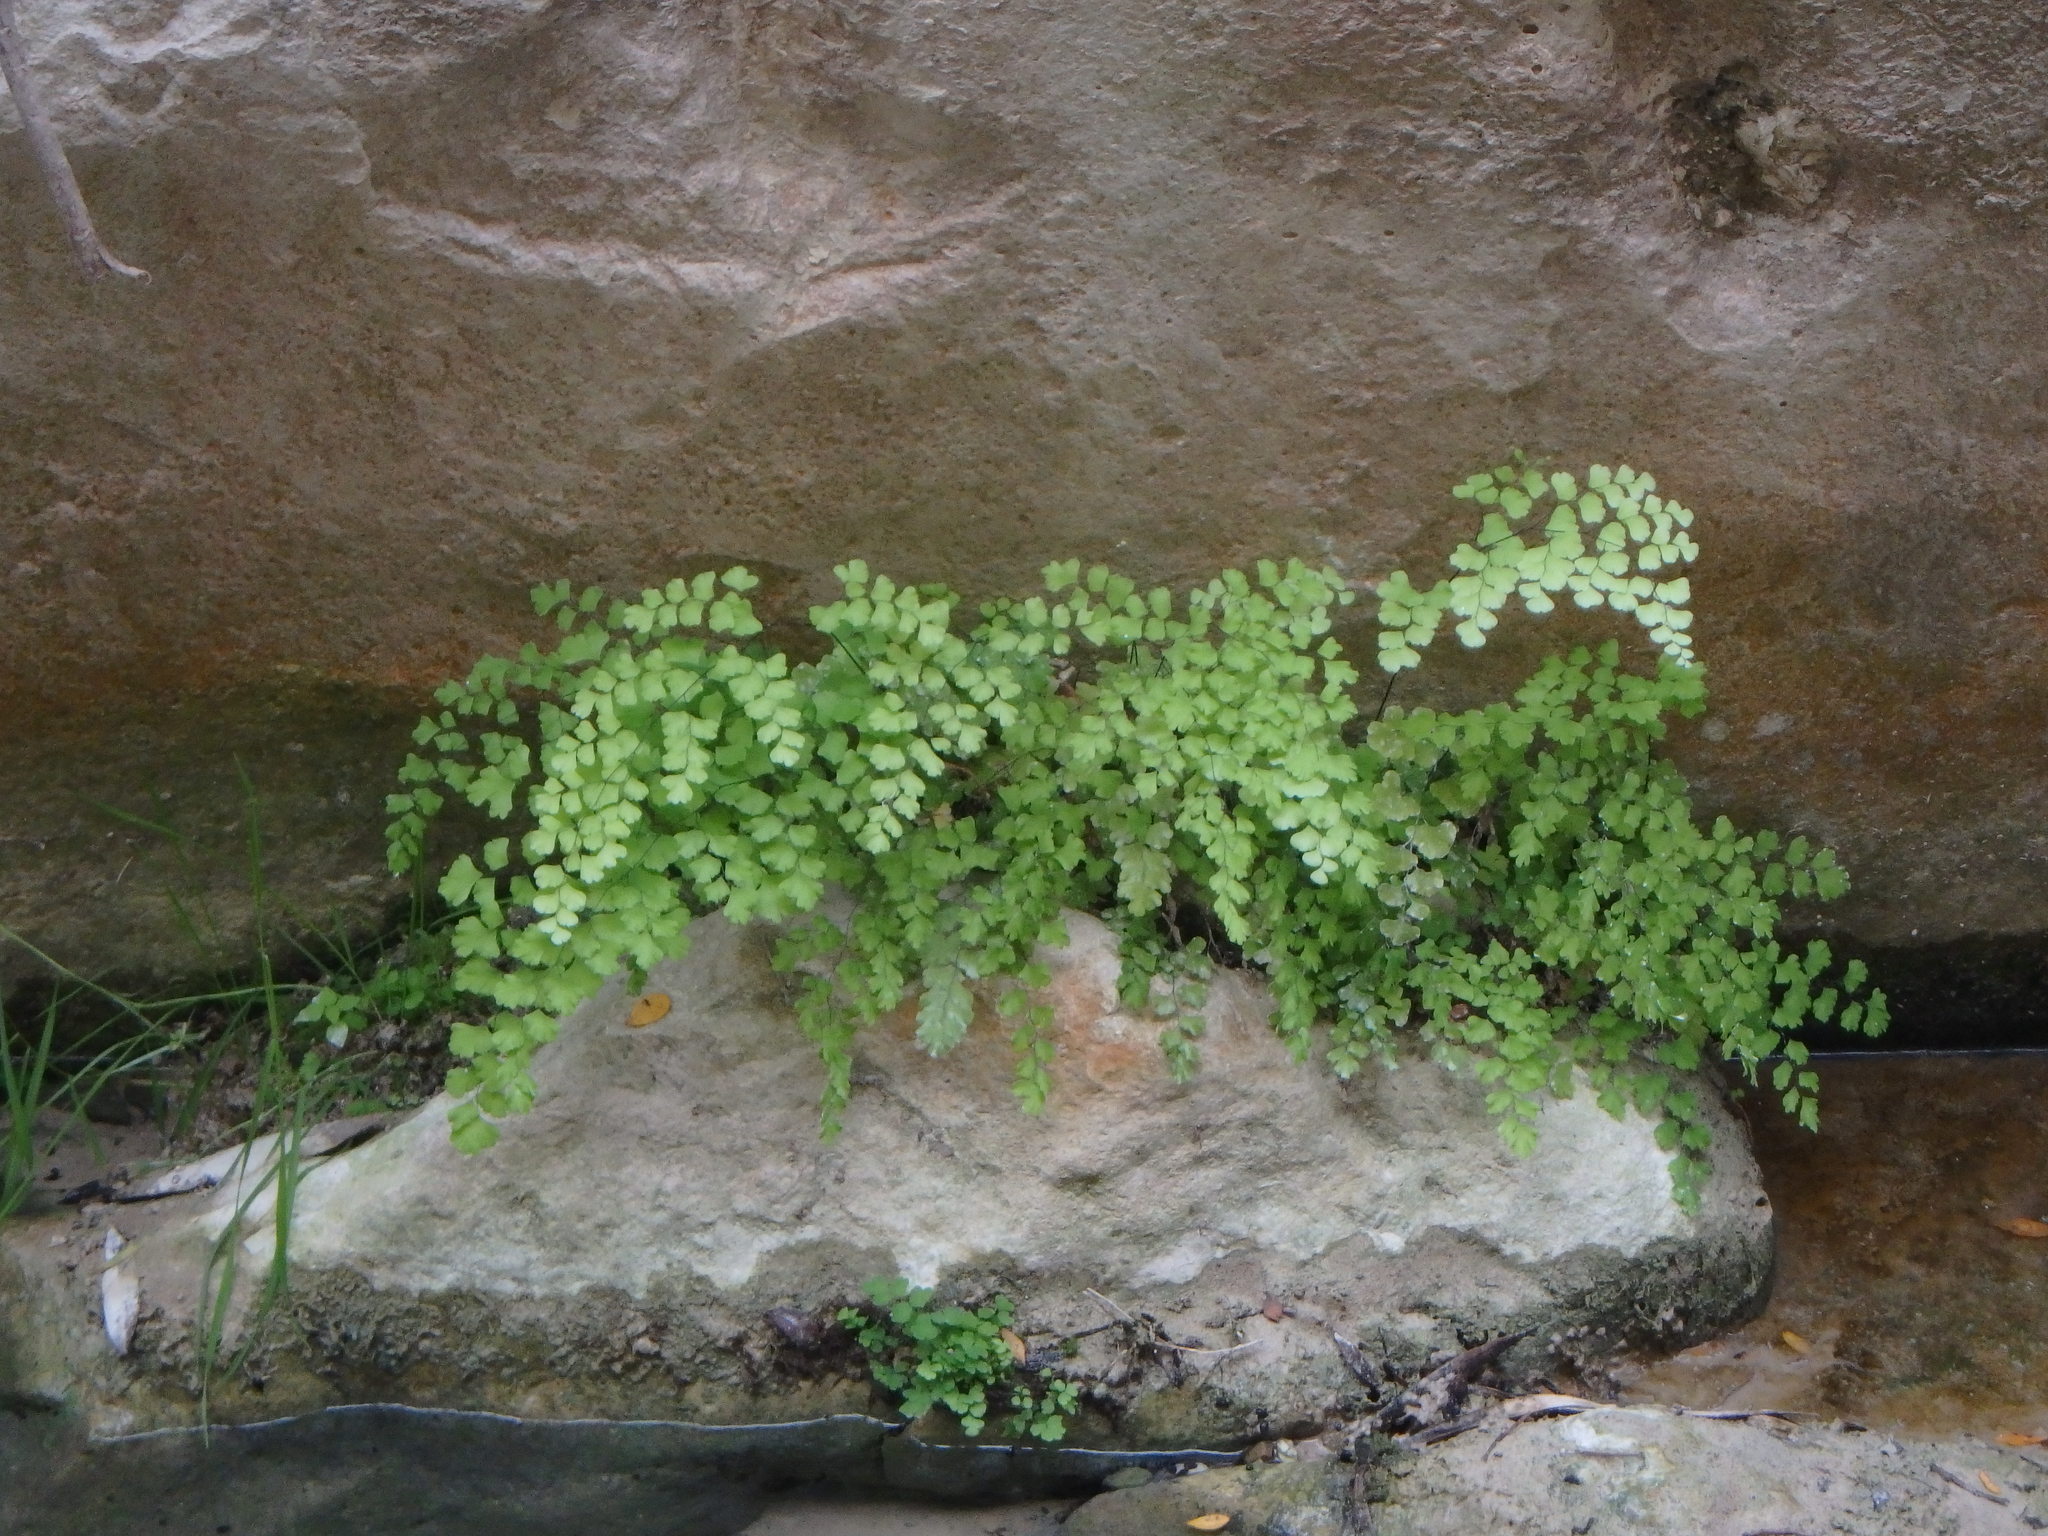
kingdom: Plantae
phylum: Tracheophyta
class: Polypodiopsida
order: Polypodiales
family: Pteridaceae
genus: Adiantum
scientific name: Adiantum capillus-veneris
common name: Maidenhair fern
